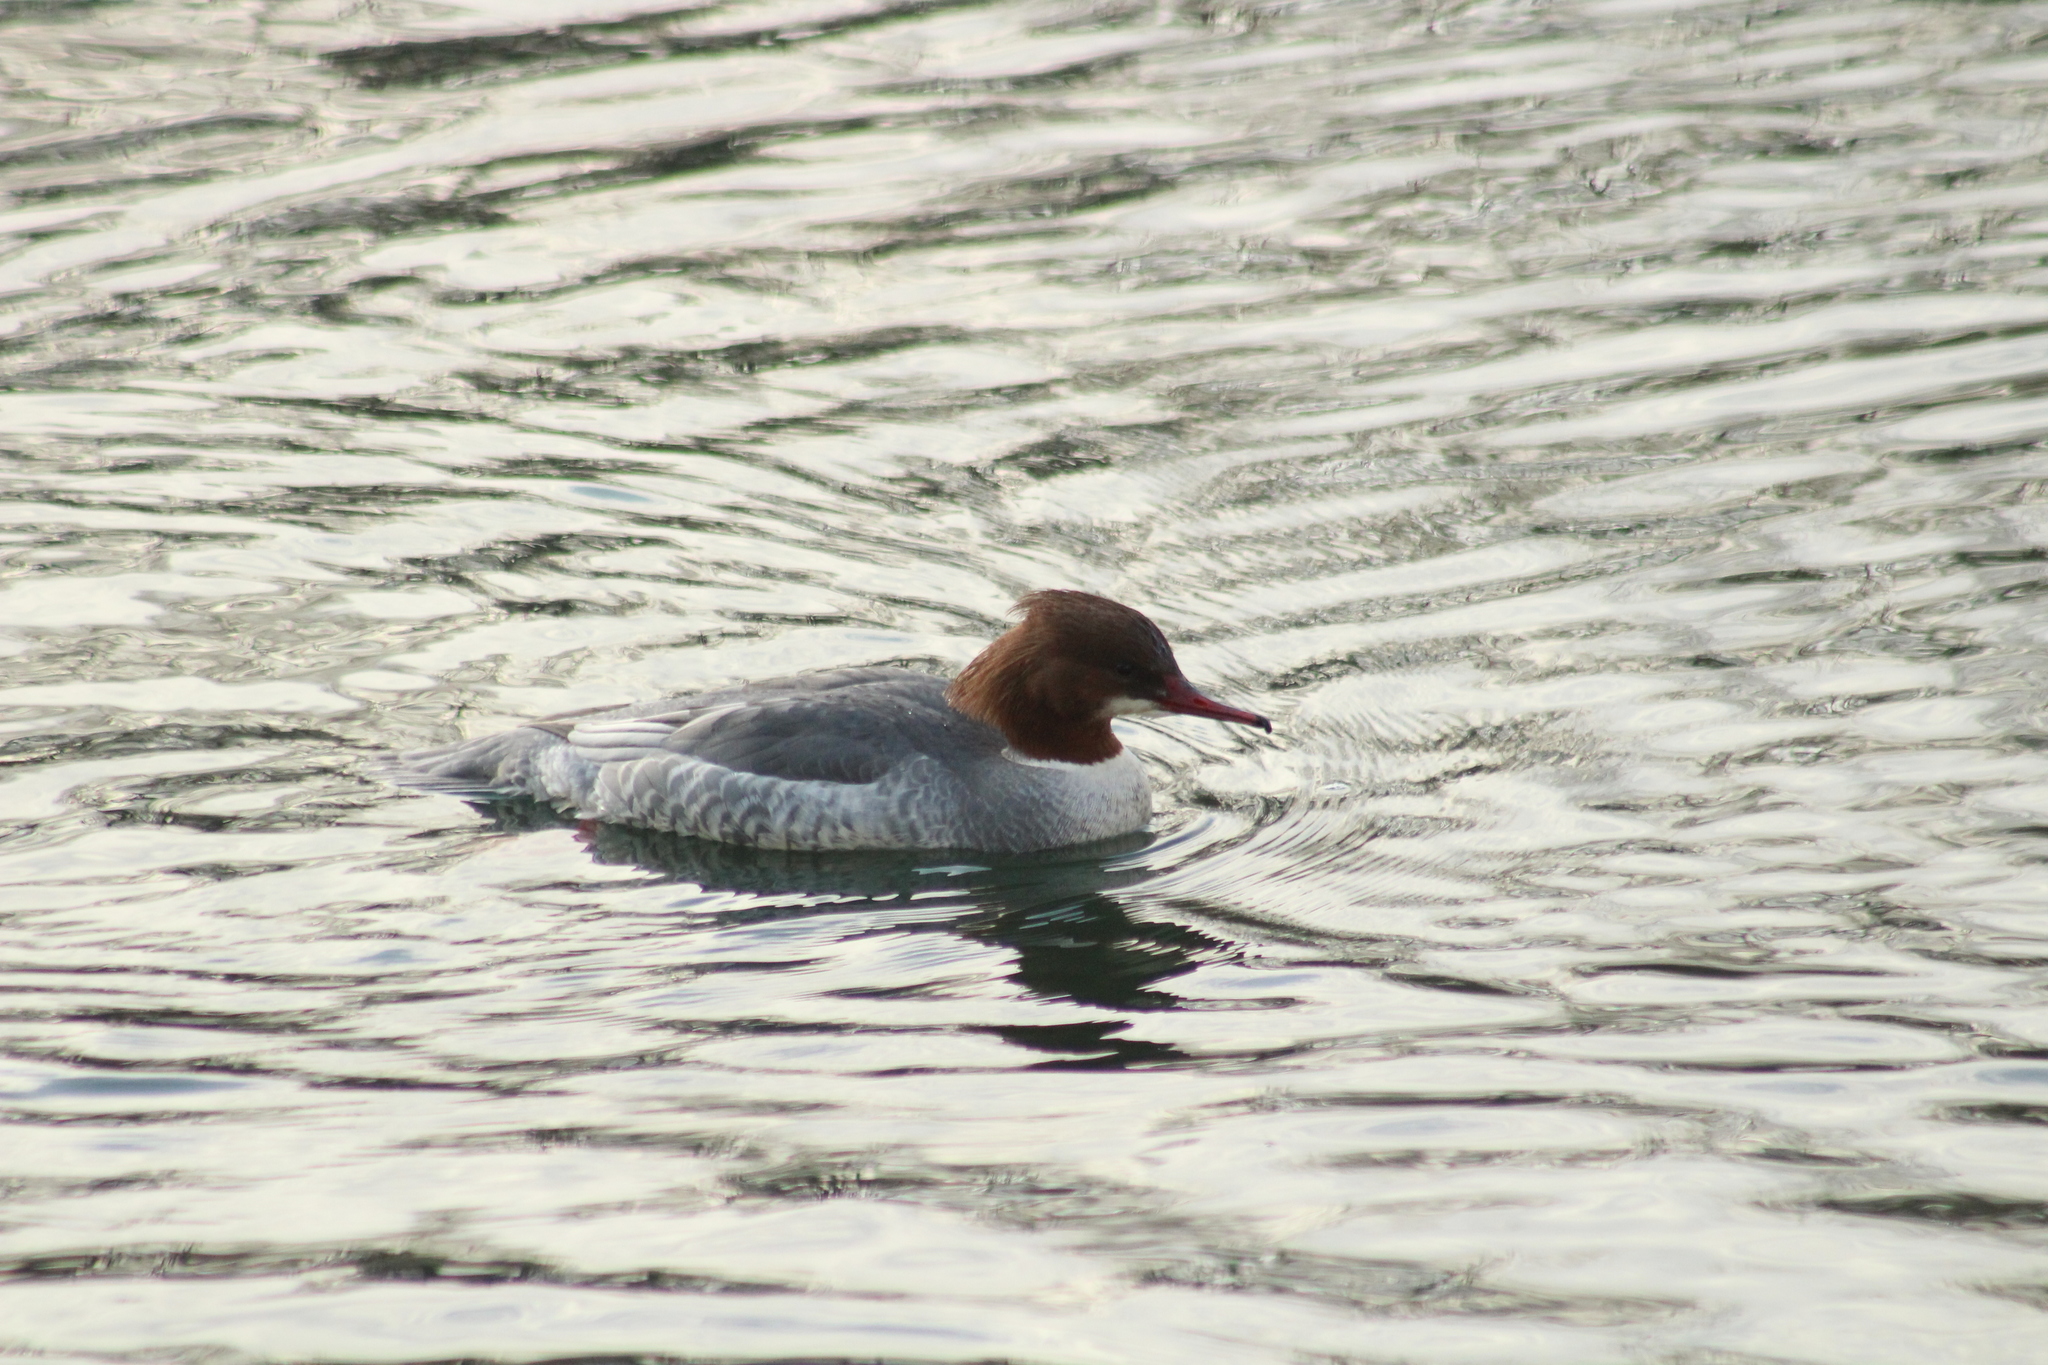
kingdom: Animalia
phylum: Chordata
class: Aves
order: Anseriformes
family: Anatidae
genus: Mergus
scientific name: Mergus merganser
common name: Common merganser
